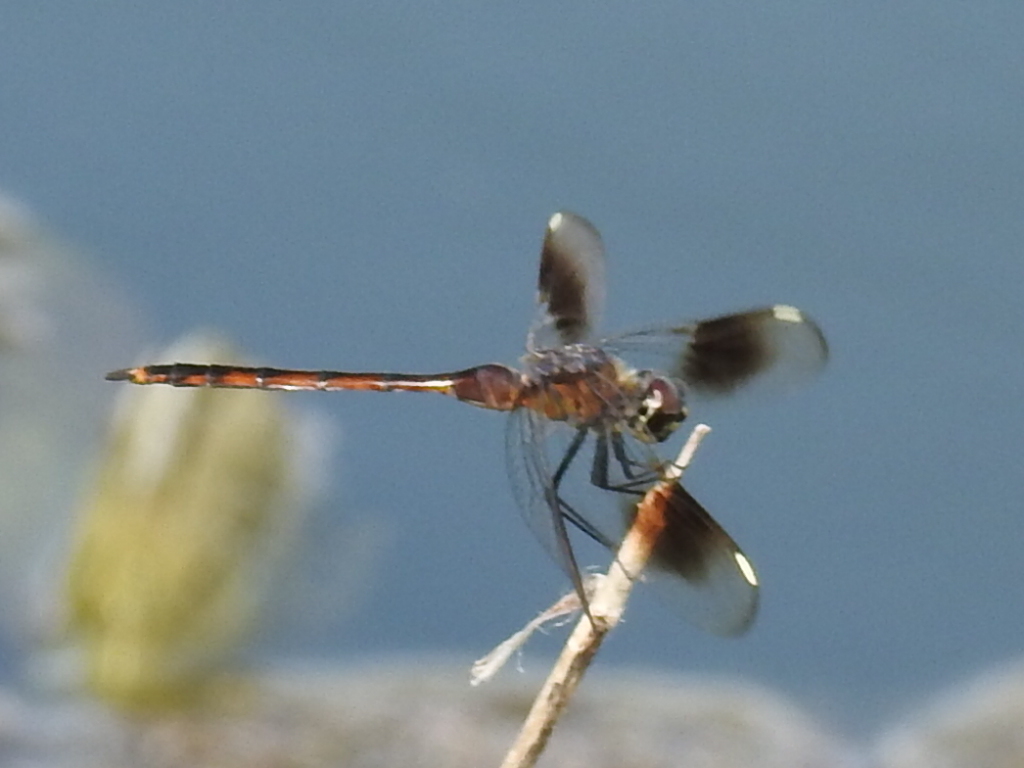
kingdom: Animalia
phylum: Arthropoda
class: Insecta
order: Odonata
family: Libellulidae
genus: Brachymesia
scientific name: Brachymesia gravida
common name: Four-spotted pennant
